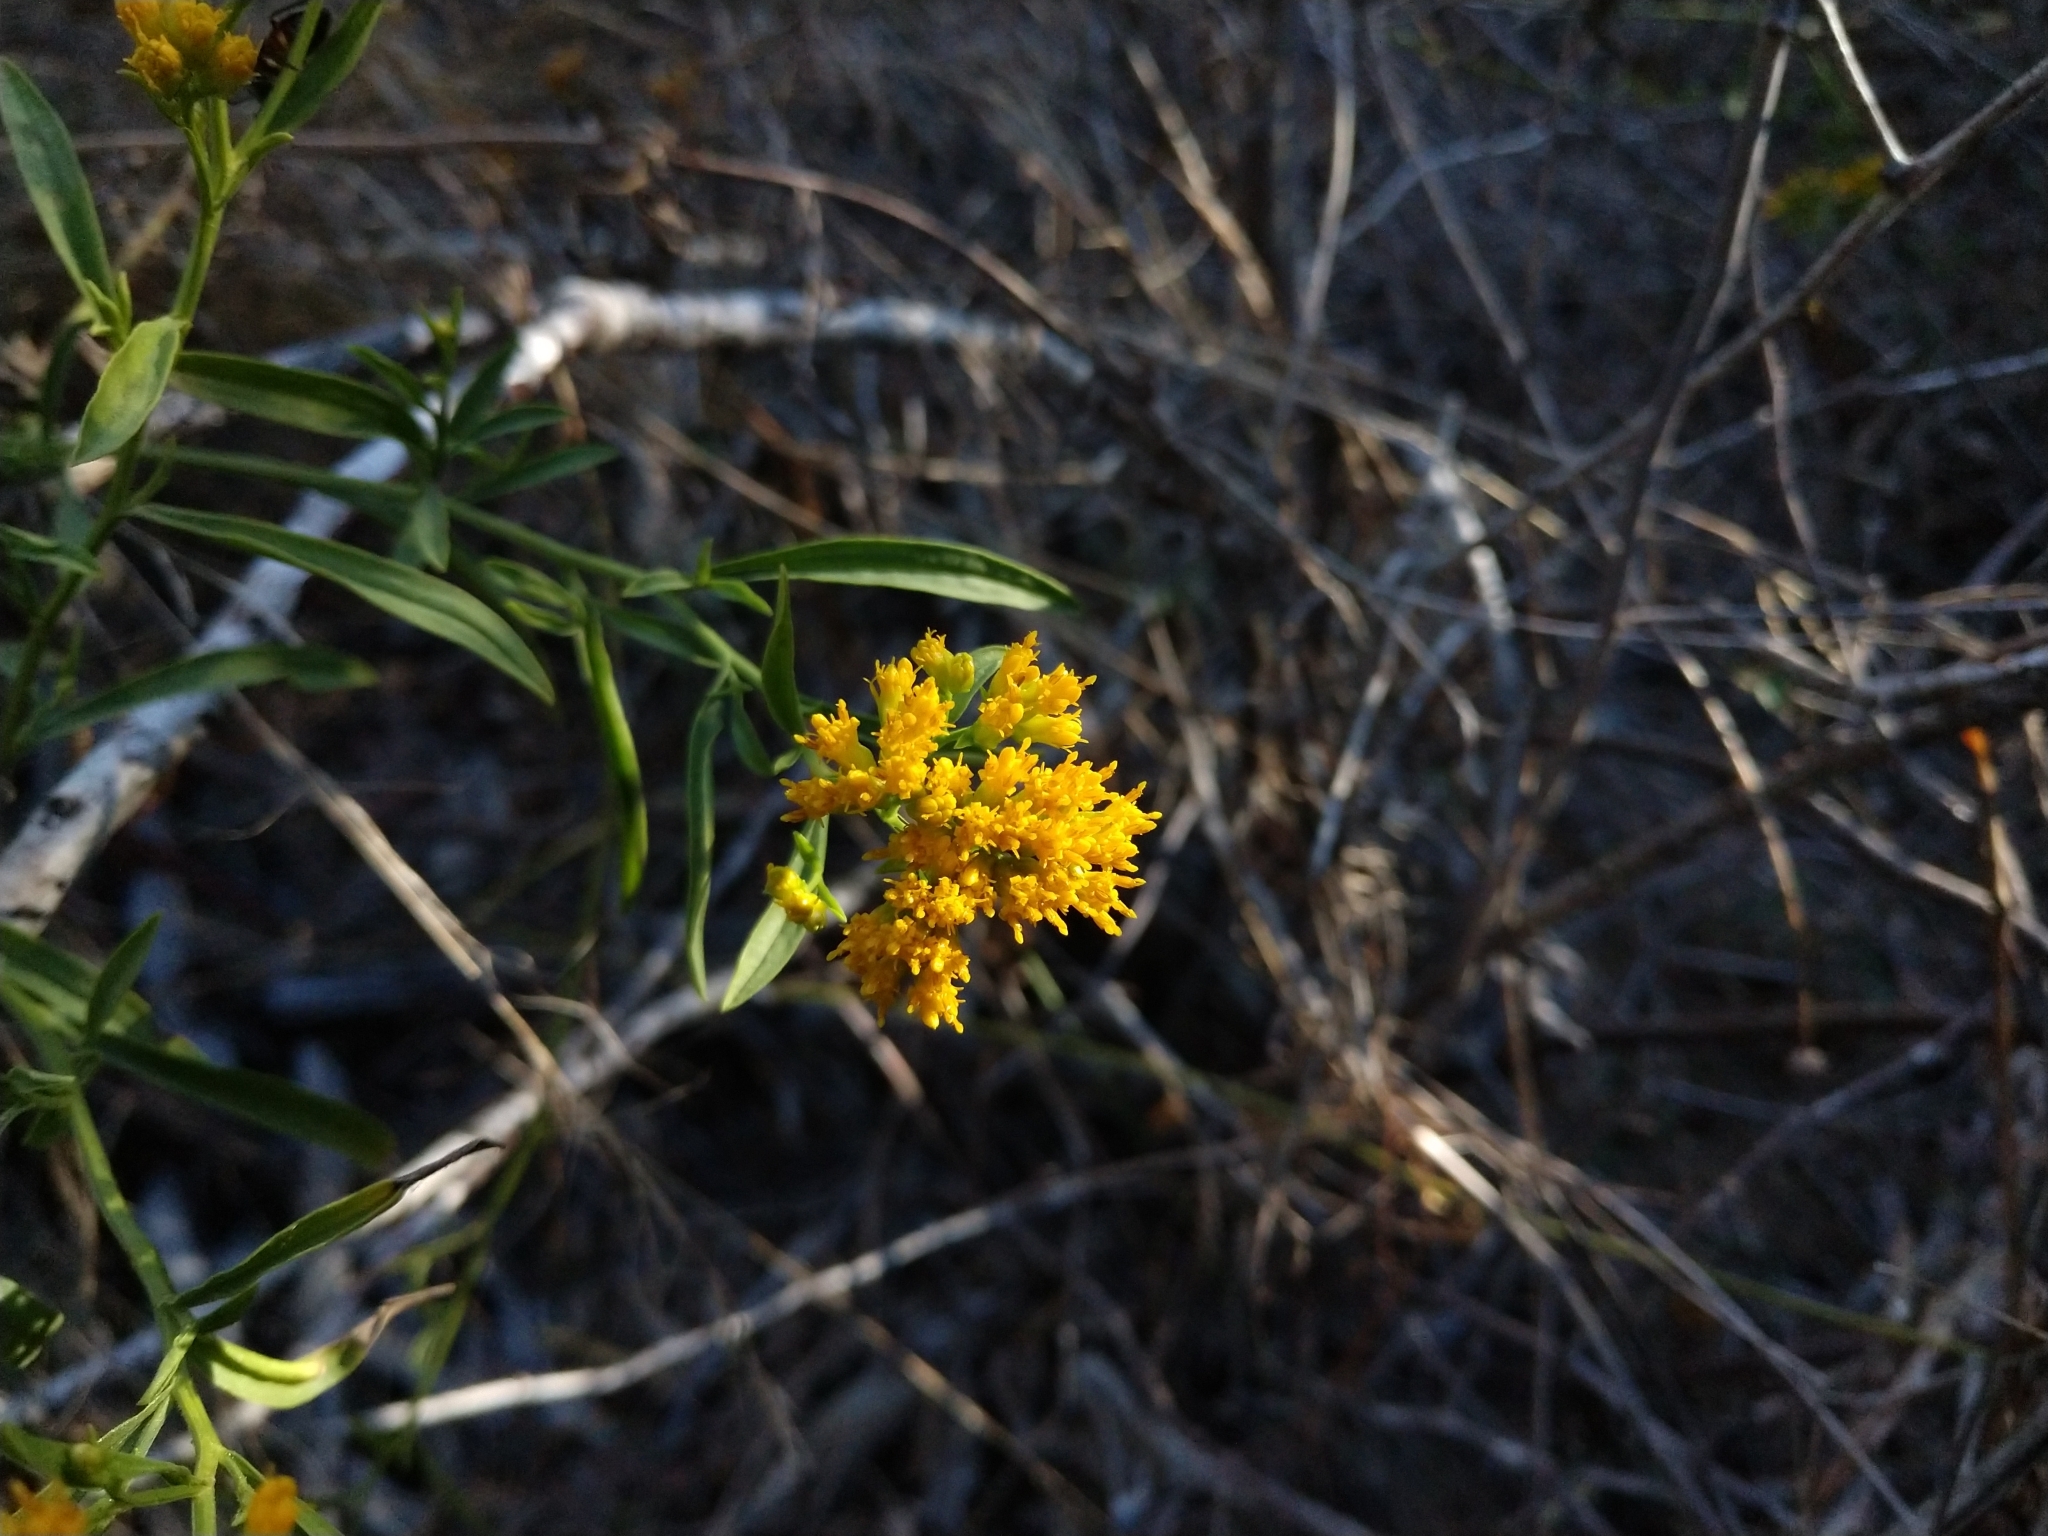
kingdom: Plantae
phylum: Tracheophyta
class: Magnoliopsida
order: Asterales
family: Asteraceae
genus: Gymnosperma
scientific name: Gymnosperma glutinosum
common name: Gumhead
